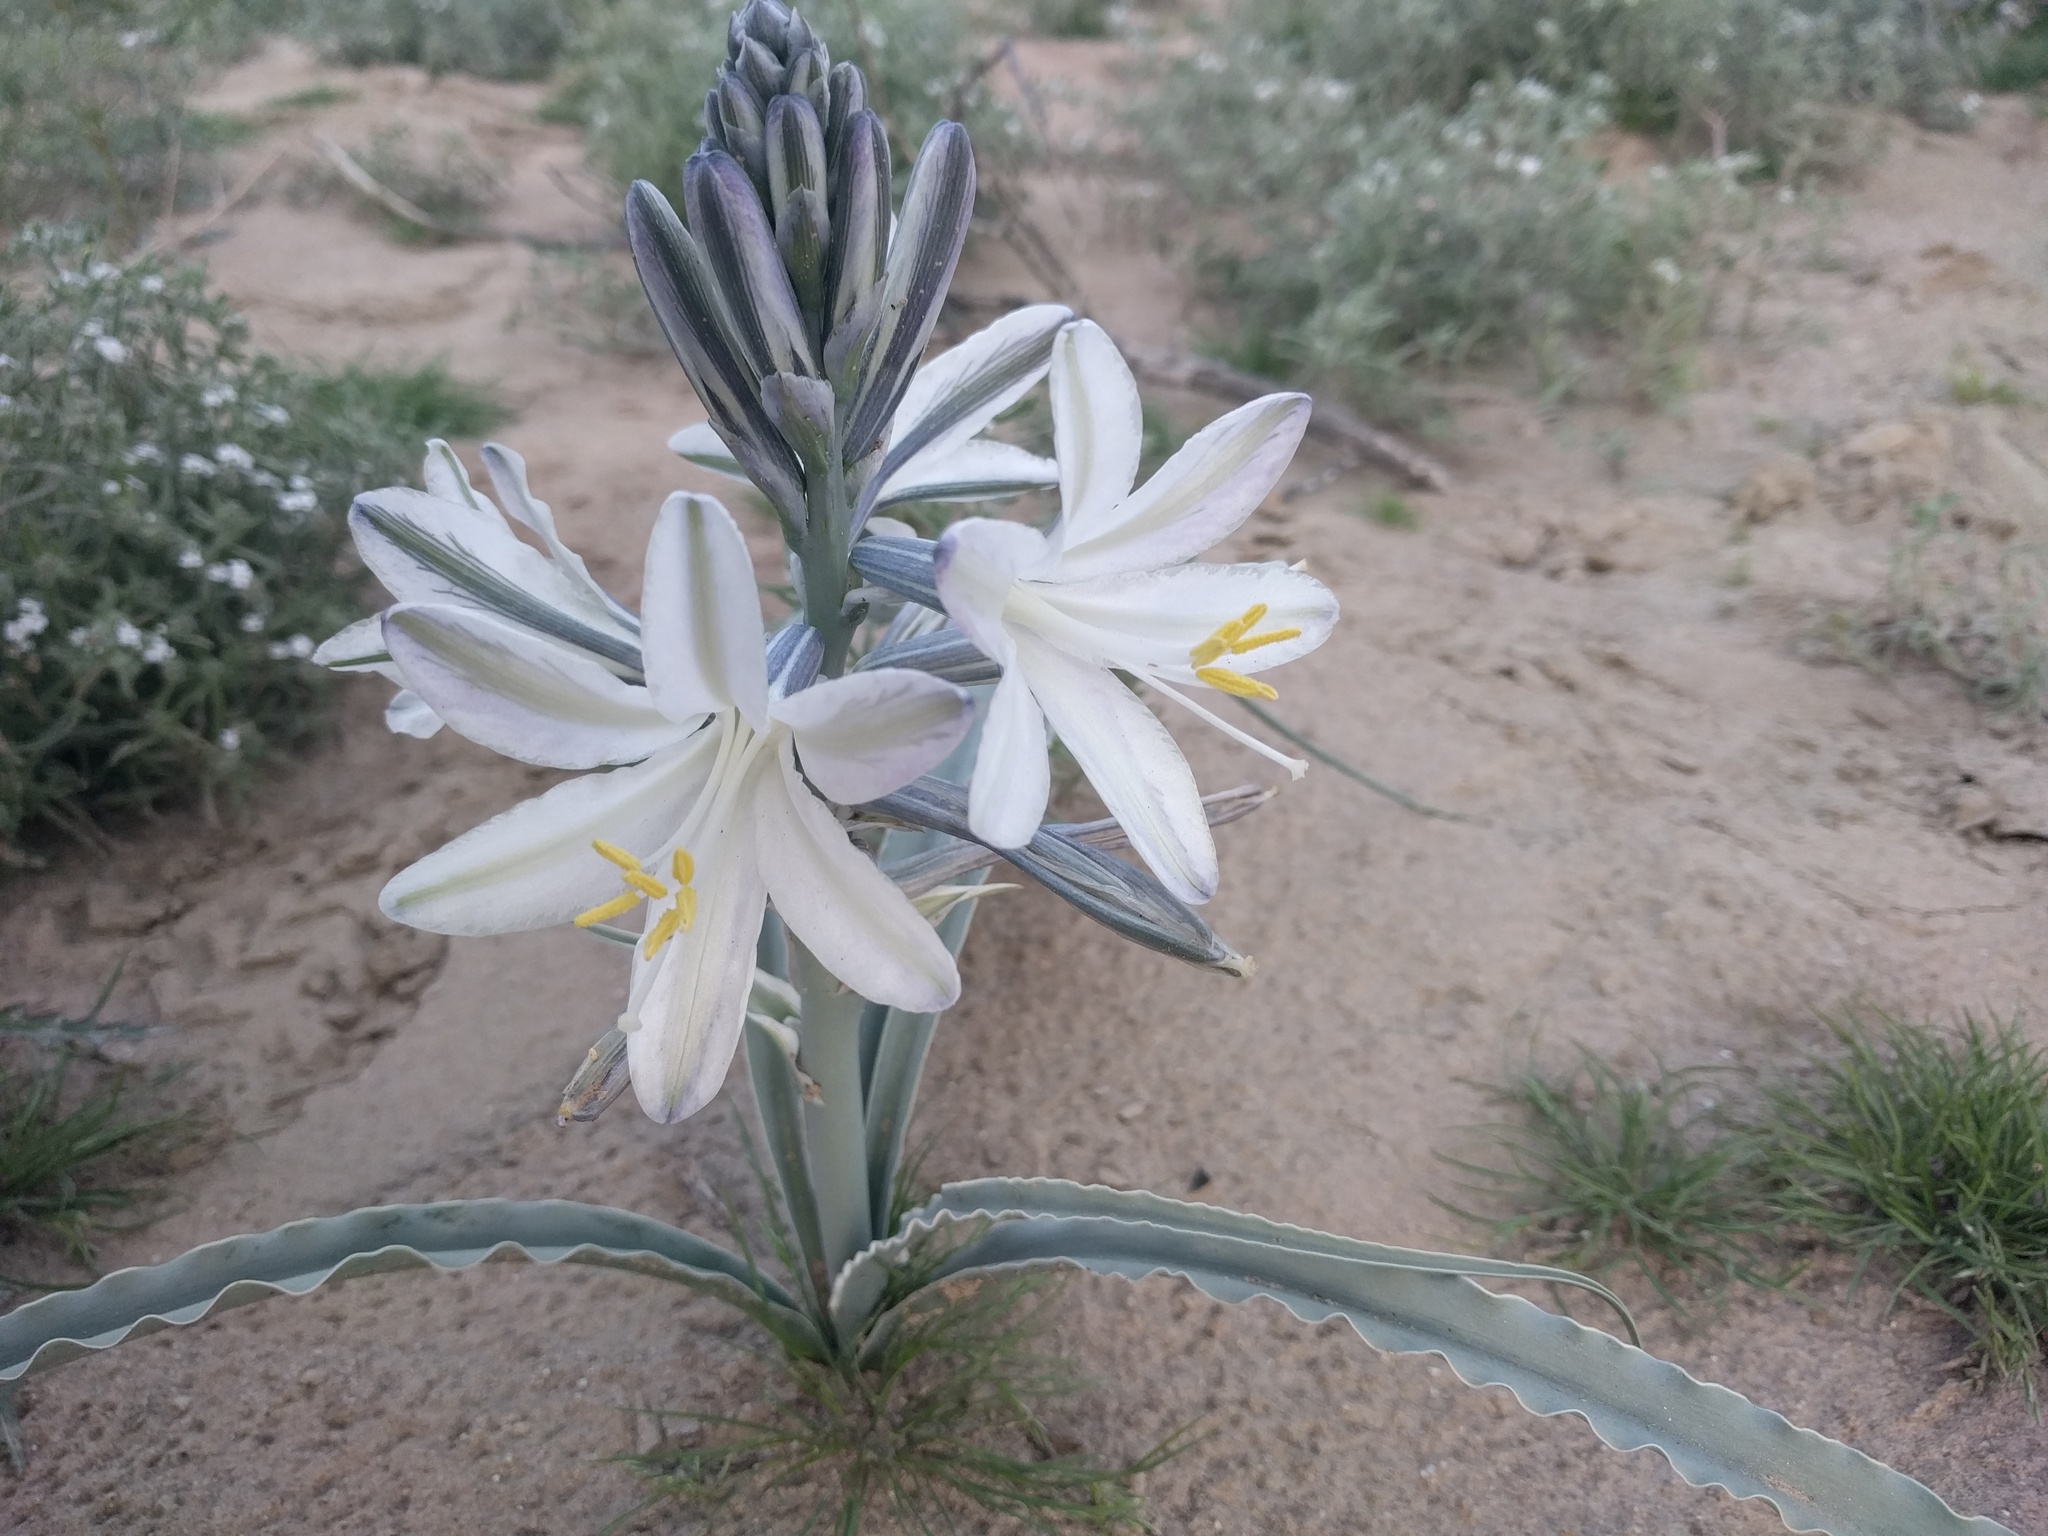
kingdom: Plantae
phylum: Tracheophyta
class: Liliopsida
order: Asparagales
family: Asparagaceae
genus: Hesperocallis
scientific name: Hesperocallis undulata
